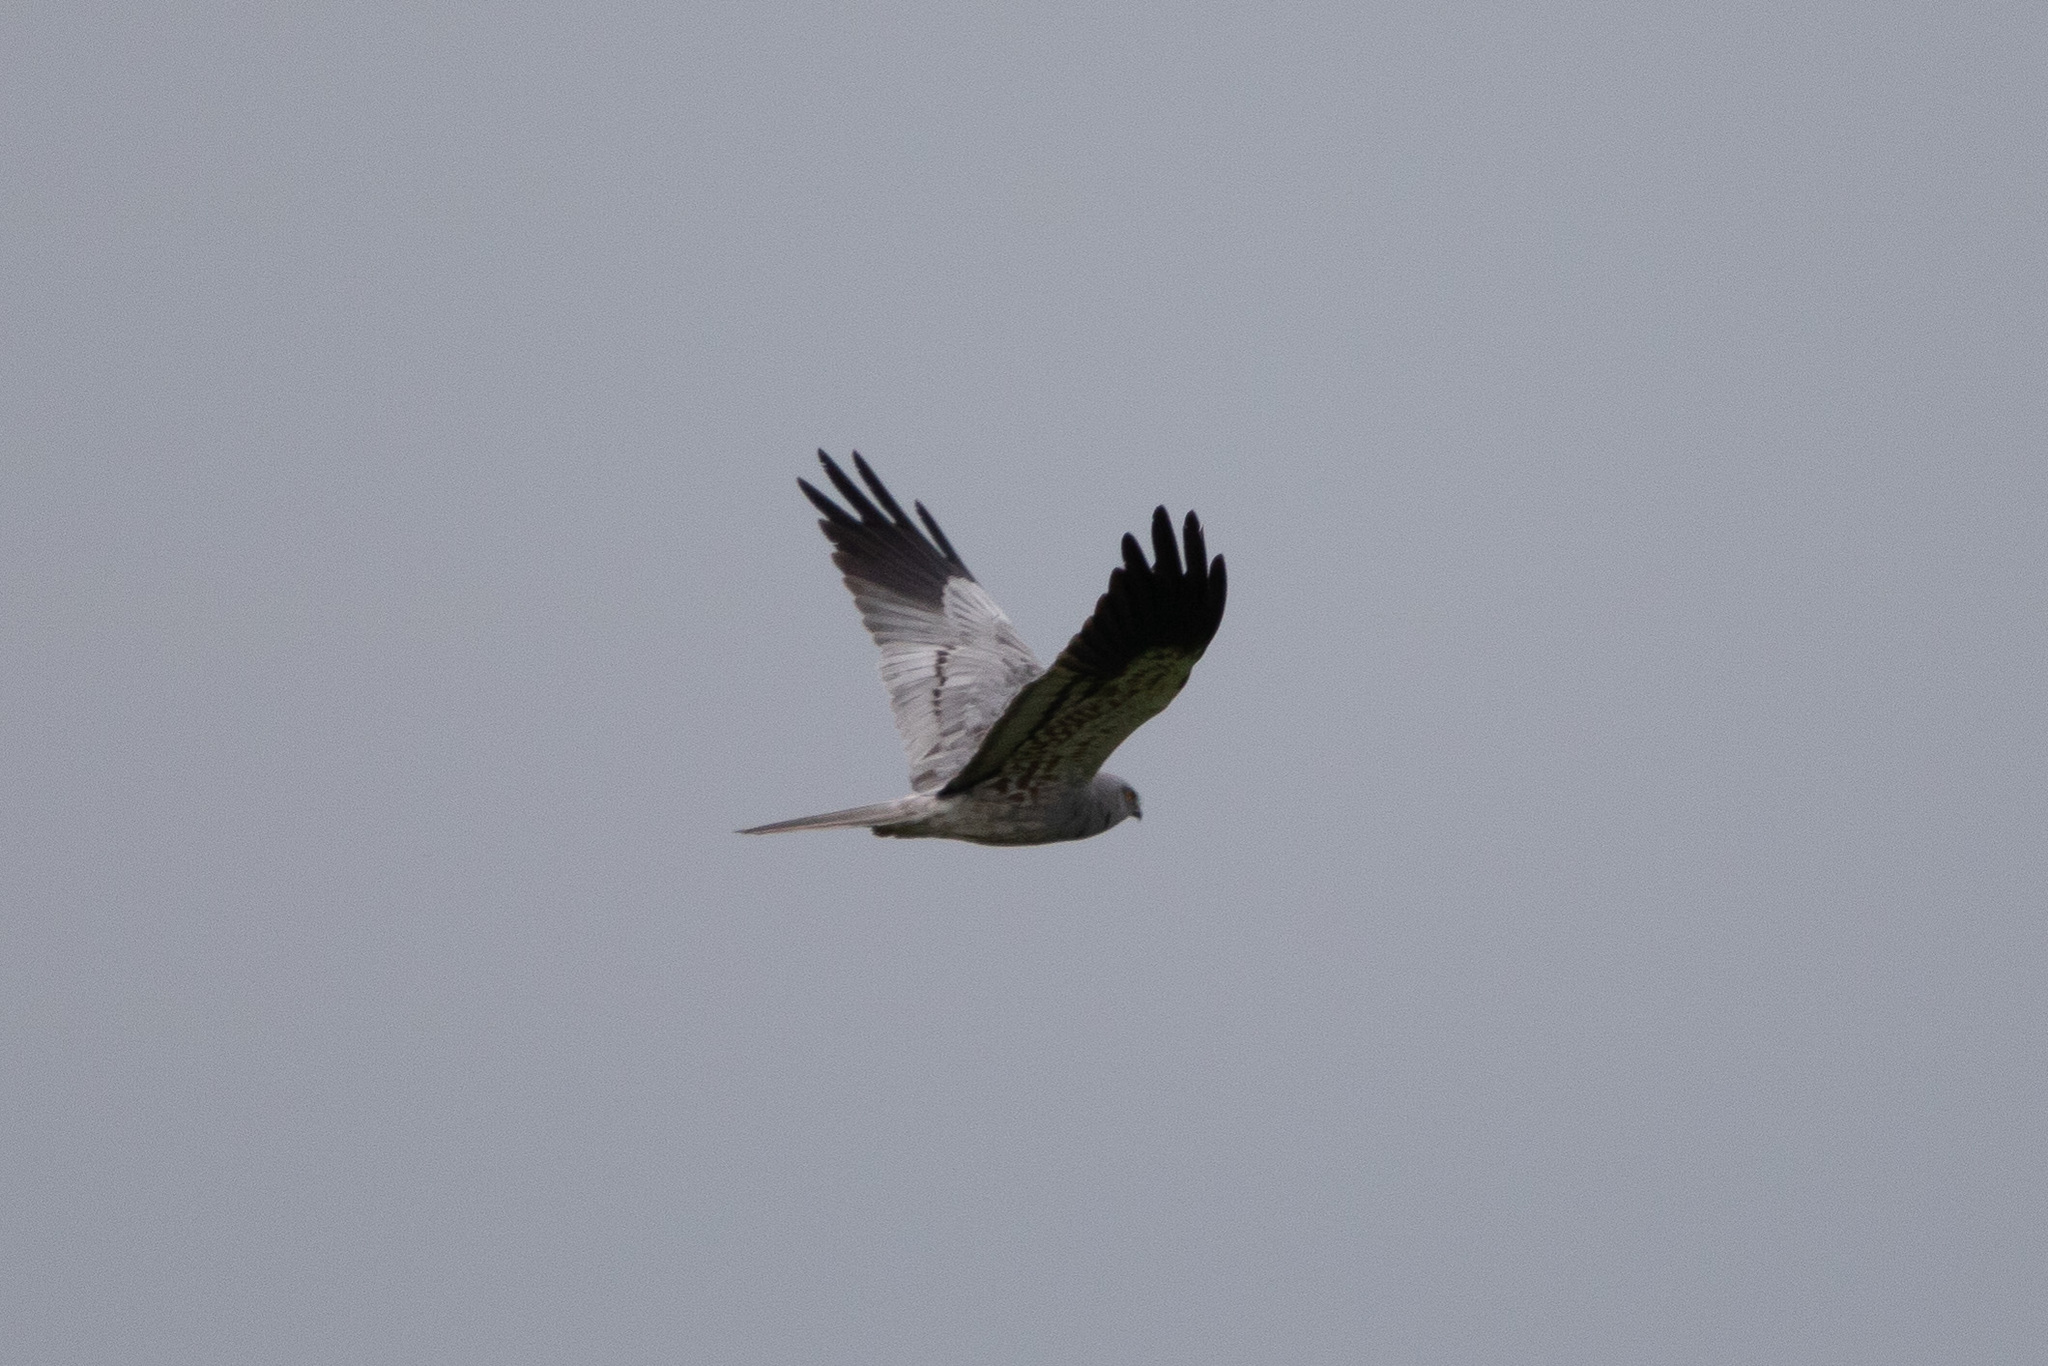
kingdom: Animalia
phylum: Chordata
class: Aves
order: Accipitriformes
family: Accipitridae
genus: Circus
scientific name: Circus pygargus
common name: Montagu's harrier
